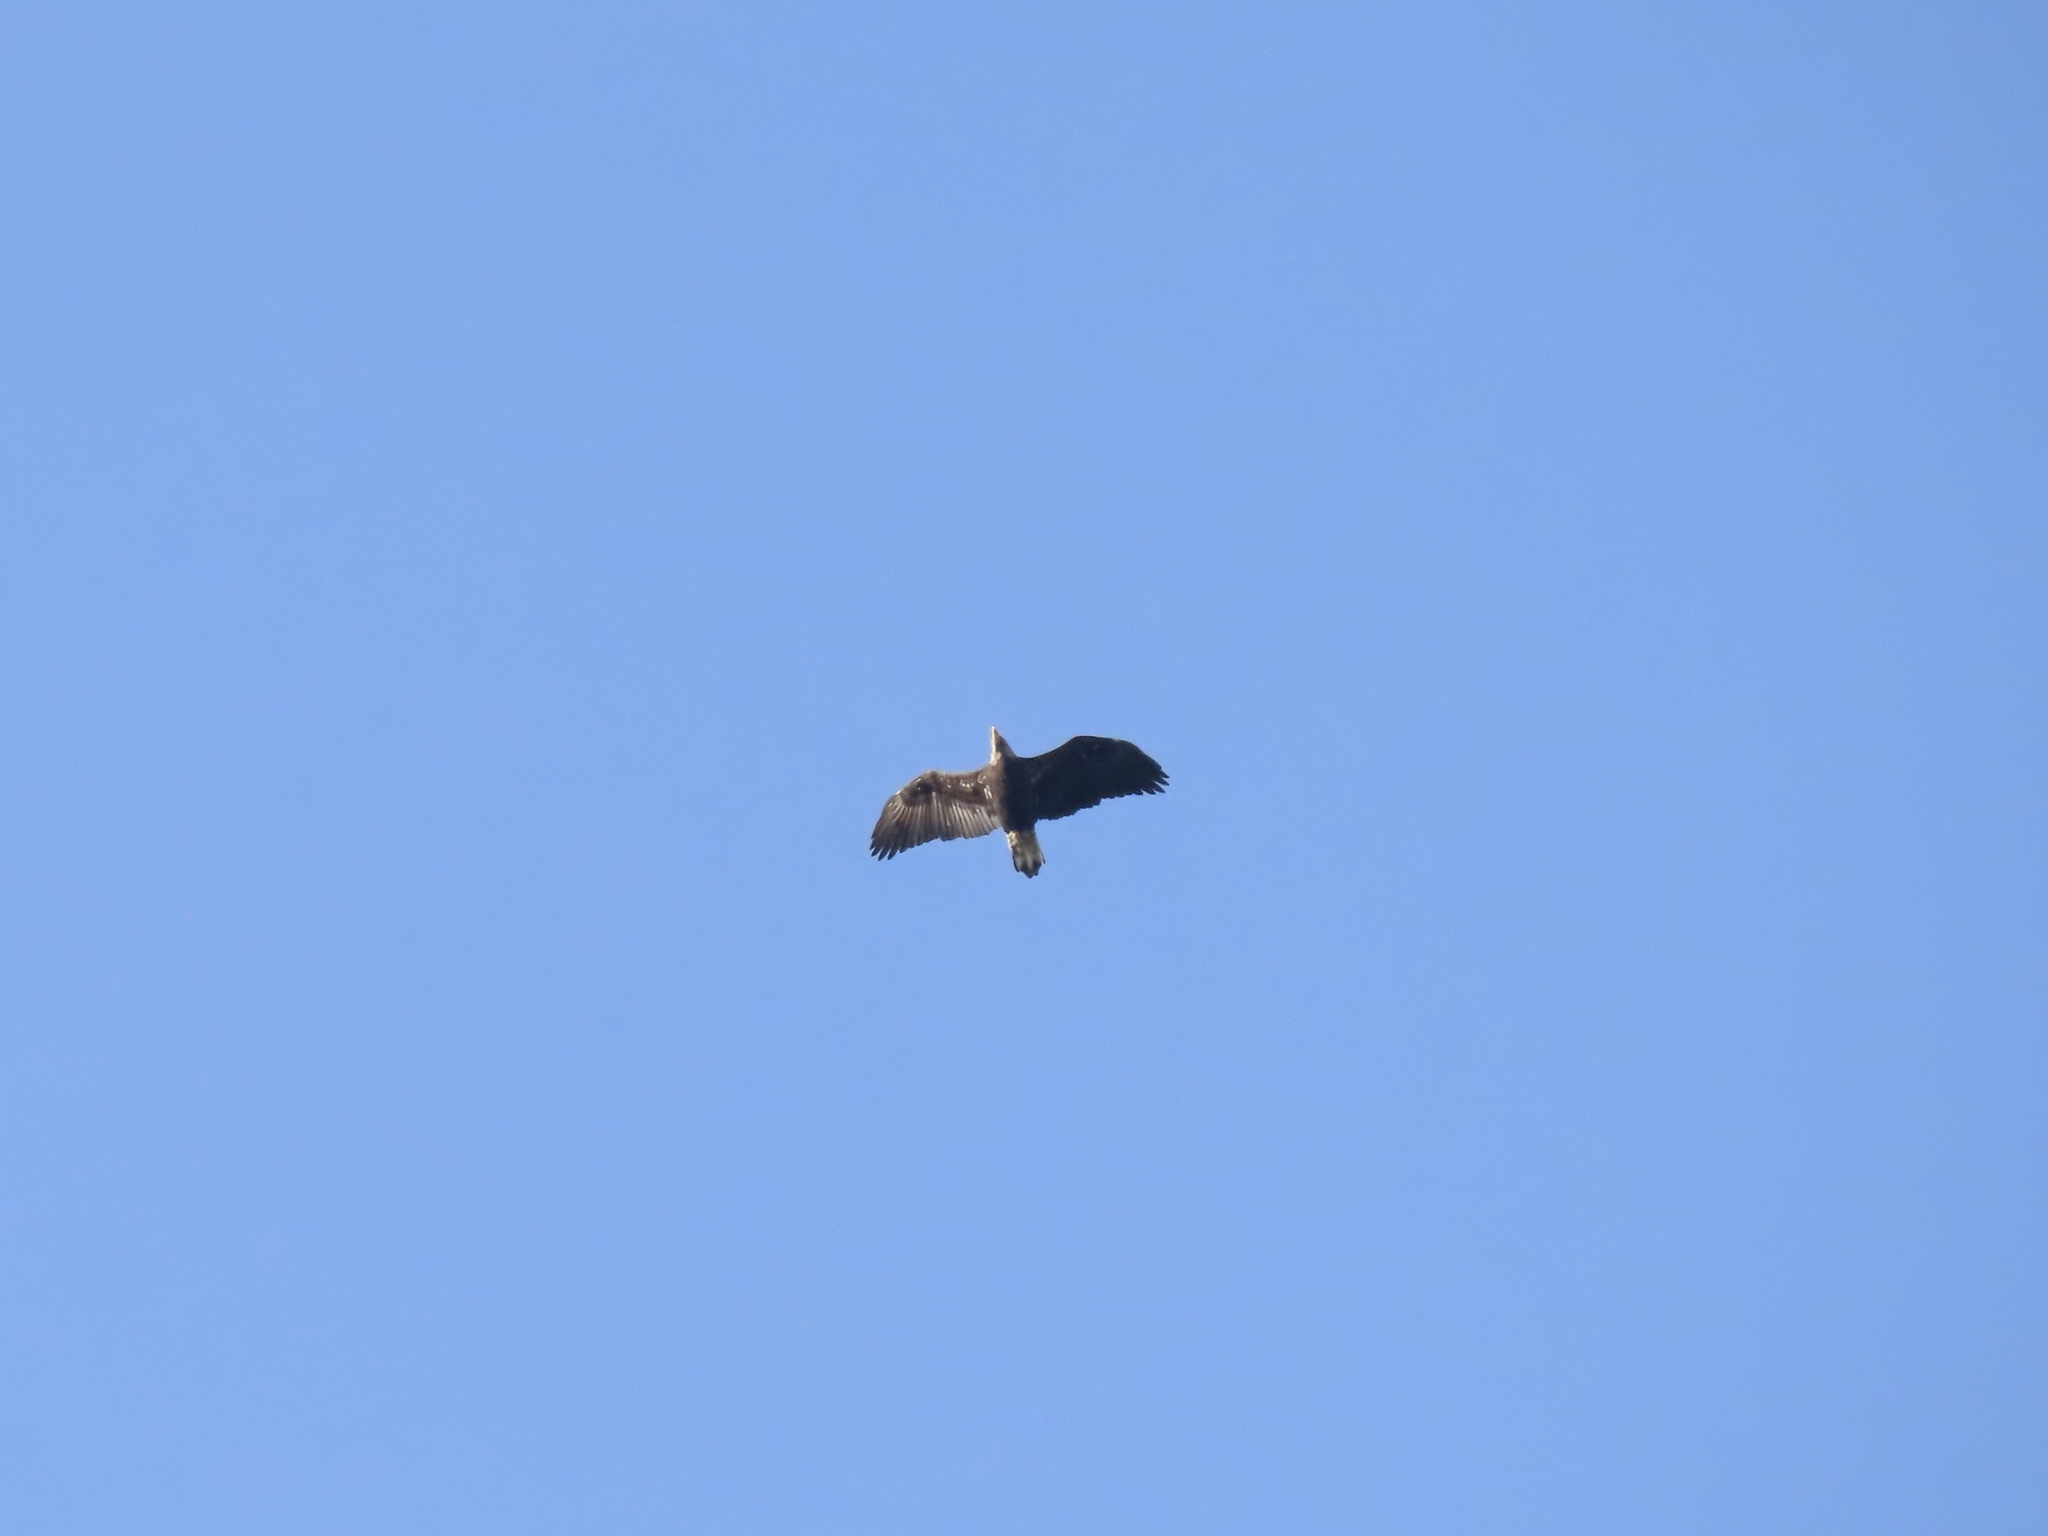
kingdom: Animalia
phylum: Chordata
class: Aves
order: Accipitriformes
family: Accipitridae
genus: Haliaeetus
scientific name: Haliaeetus leucocephalus
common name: Bald eagle
